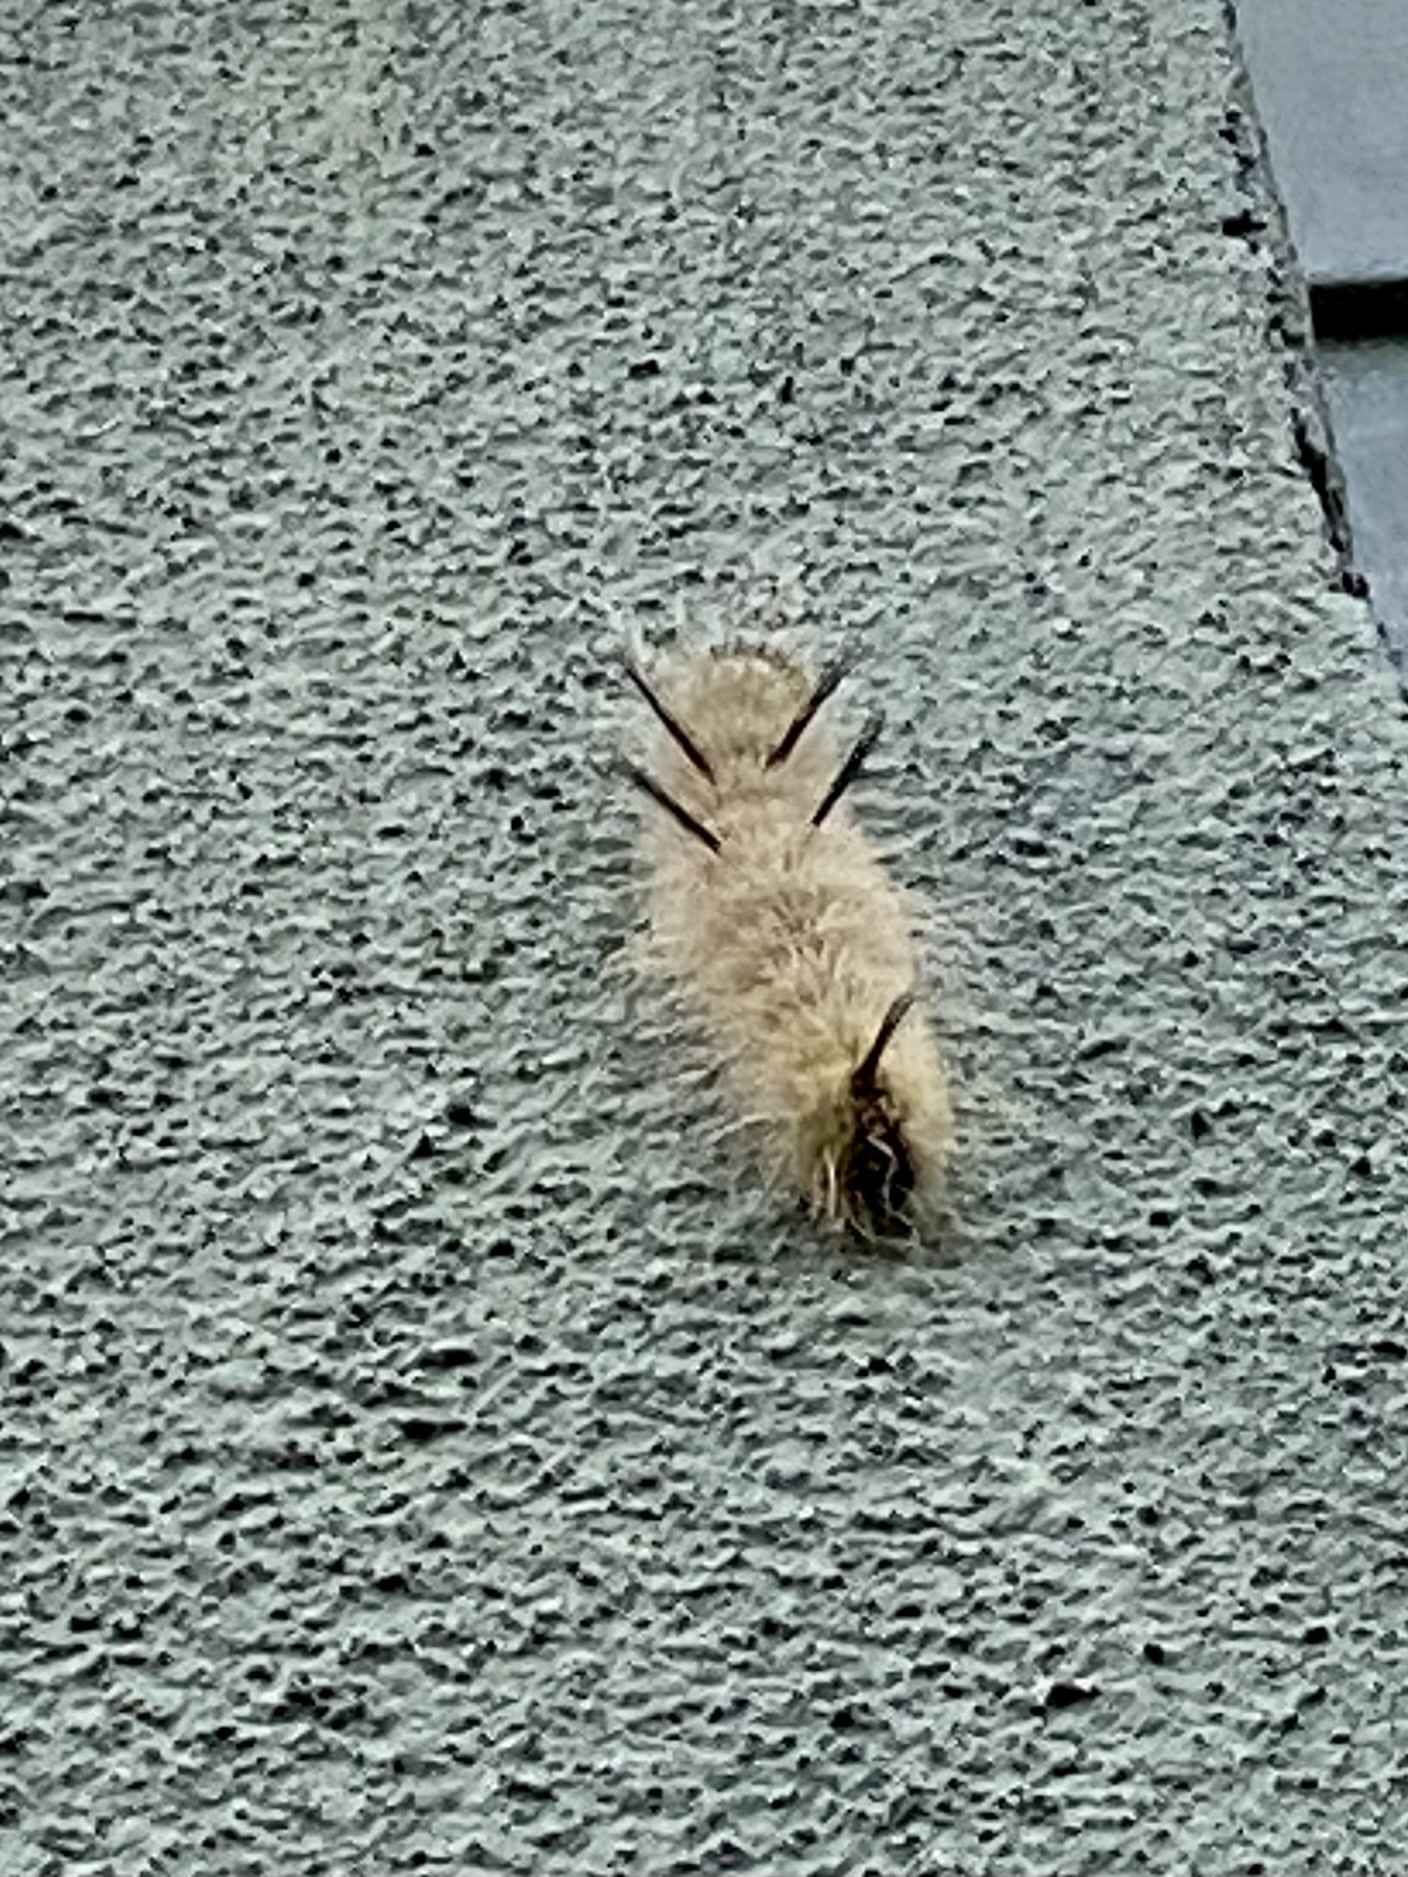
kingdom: Animalia
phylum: Arthropoda
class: Insecta
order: Lepidoptera
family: Noctuidae
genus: Acronicta
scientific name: Acronicta americana
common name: American dagger
